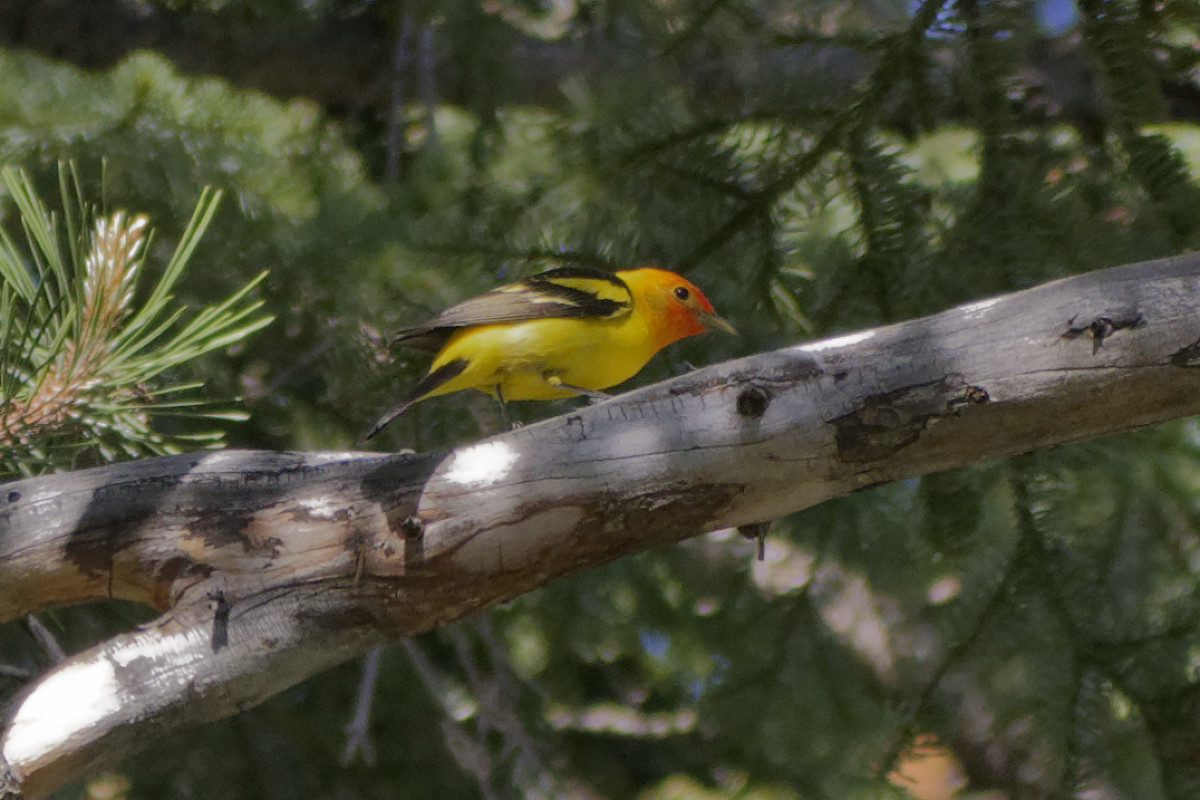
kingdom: Animalia
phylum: Chordata
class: Aves
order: Passeriformes
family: Cardinalidae
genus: Piranga
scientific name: Piranga ludoviciana
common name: Western tanager
